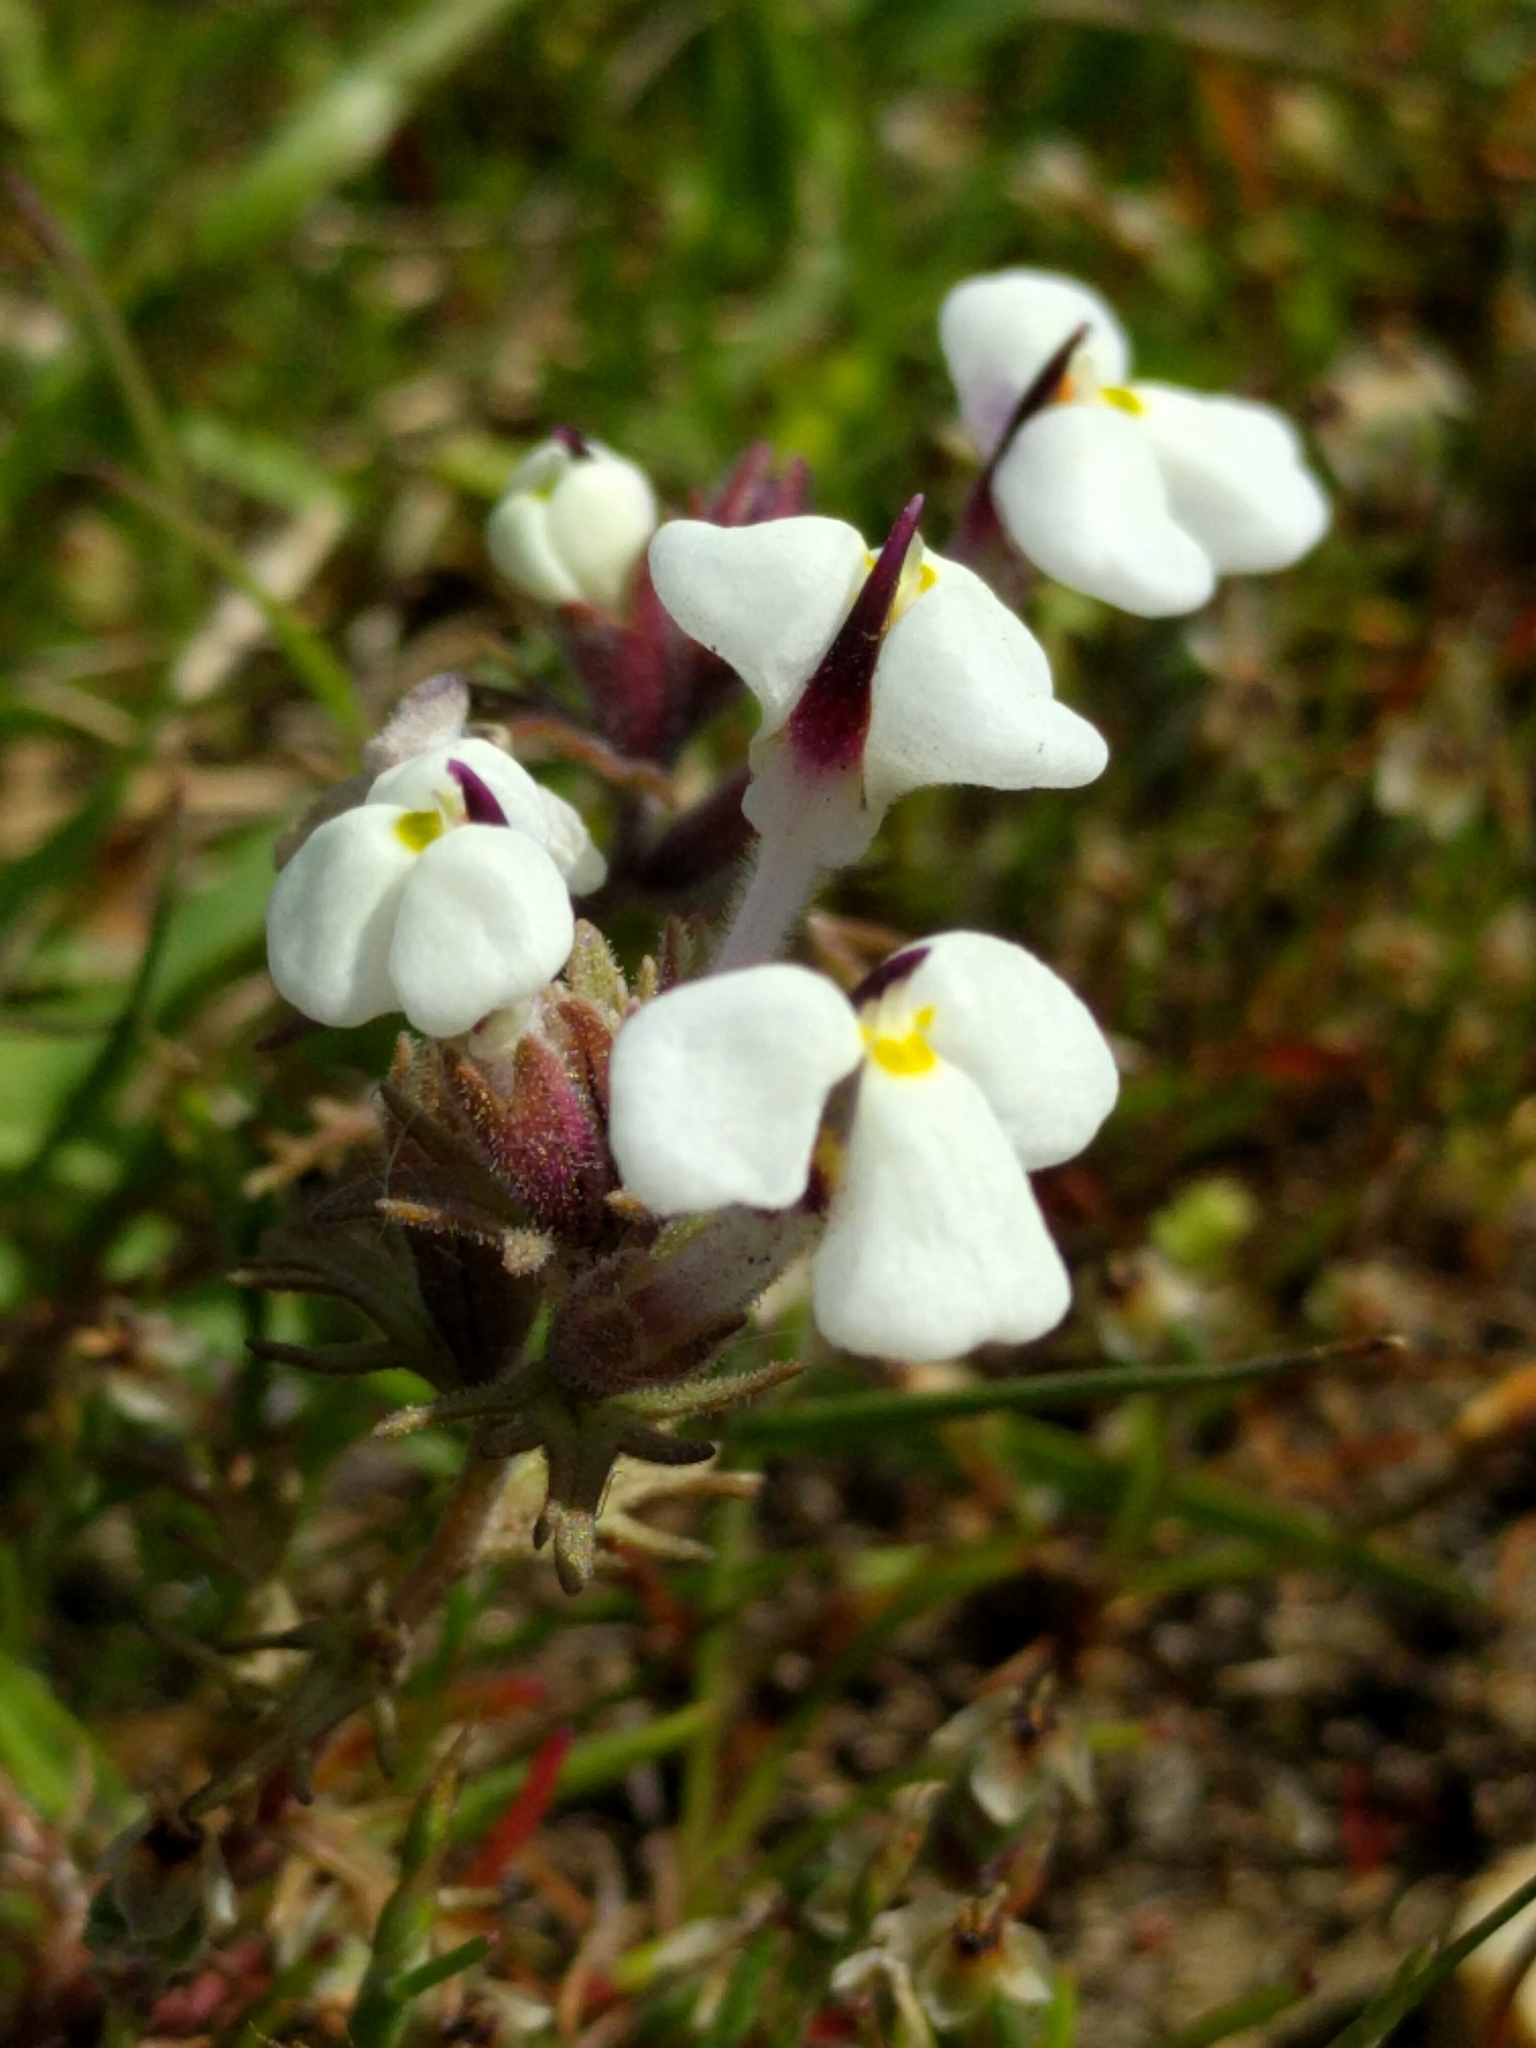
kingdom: Plantae
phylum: Tracheophyta
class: Magnoliopsida
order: Lamiales
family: Orobanchaceae
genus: Triphysaria
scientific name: Triphysaria eriantha
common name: Johnny-tuck
